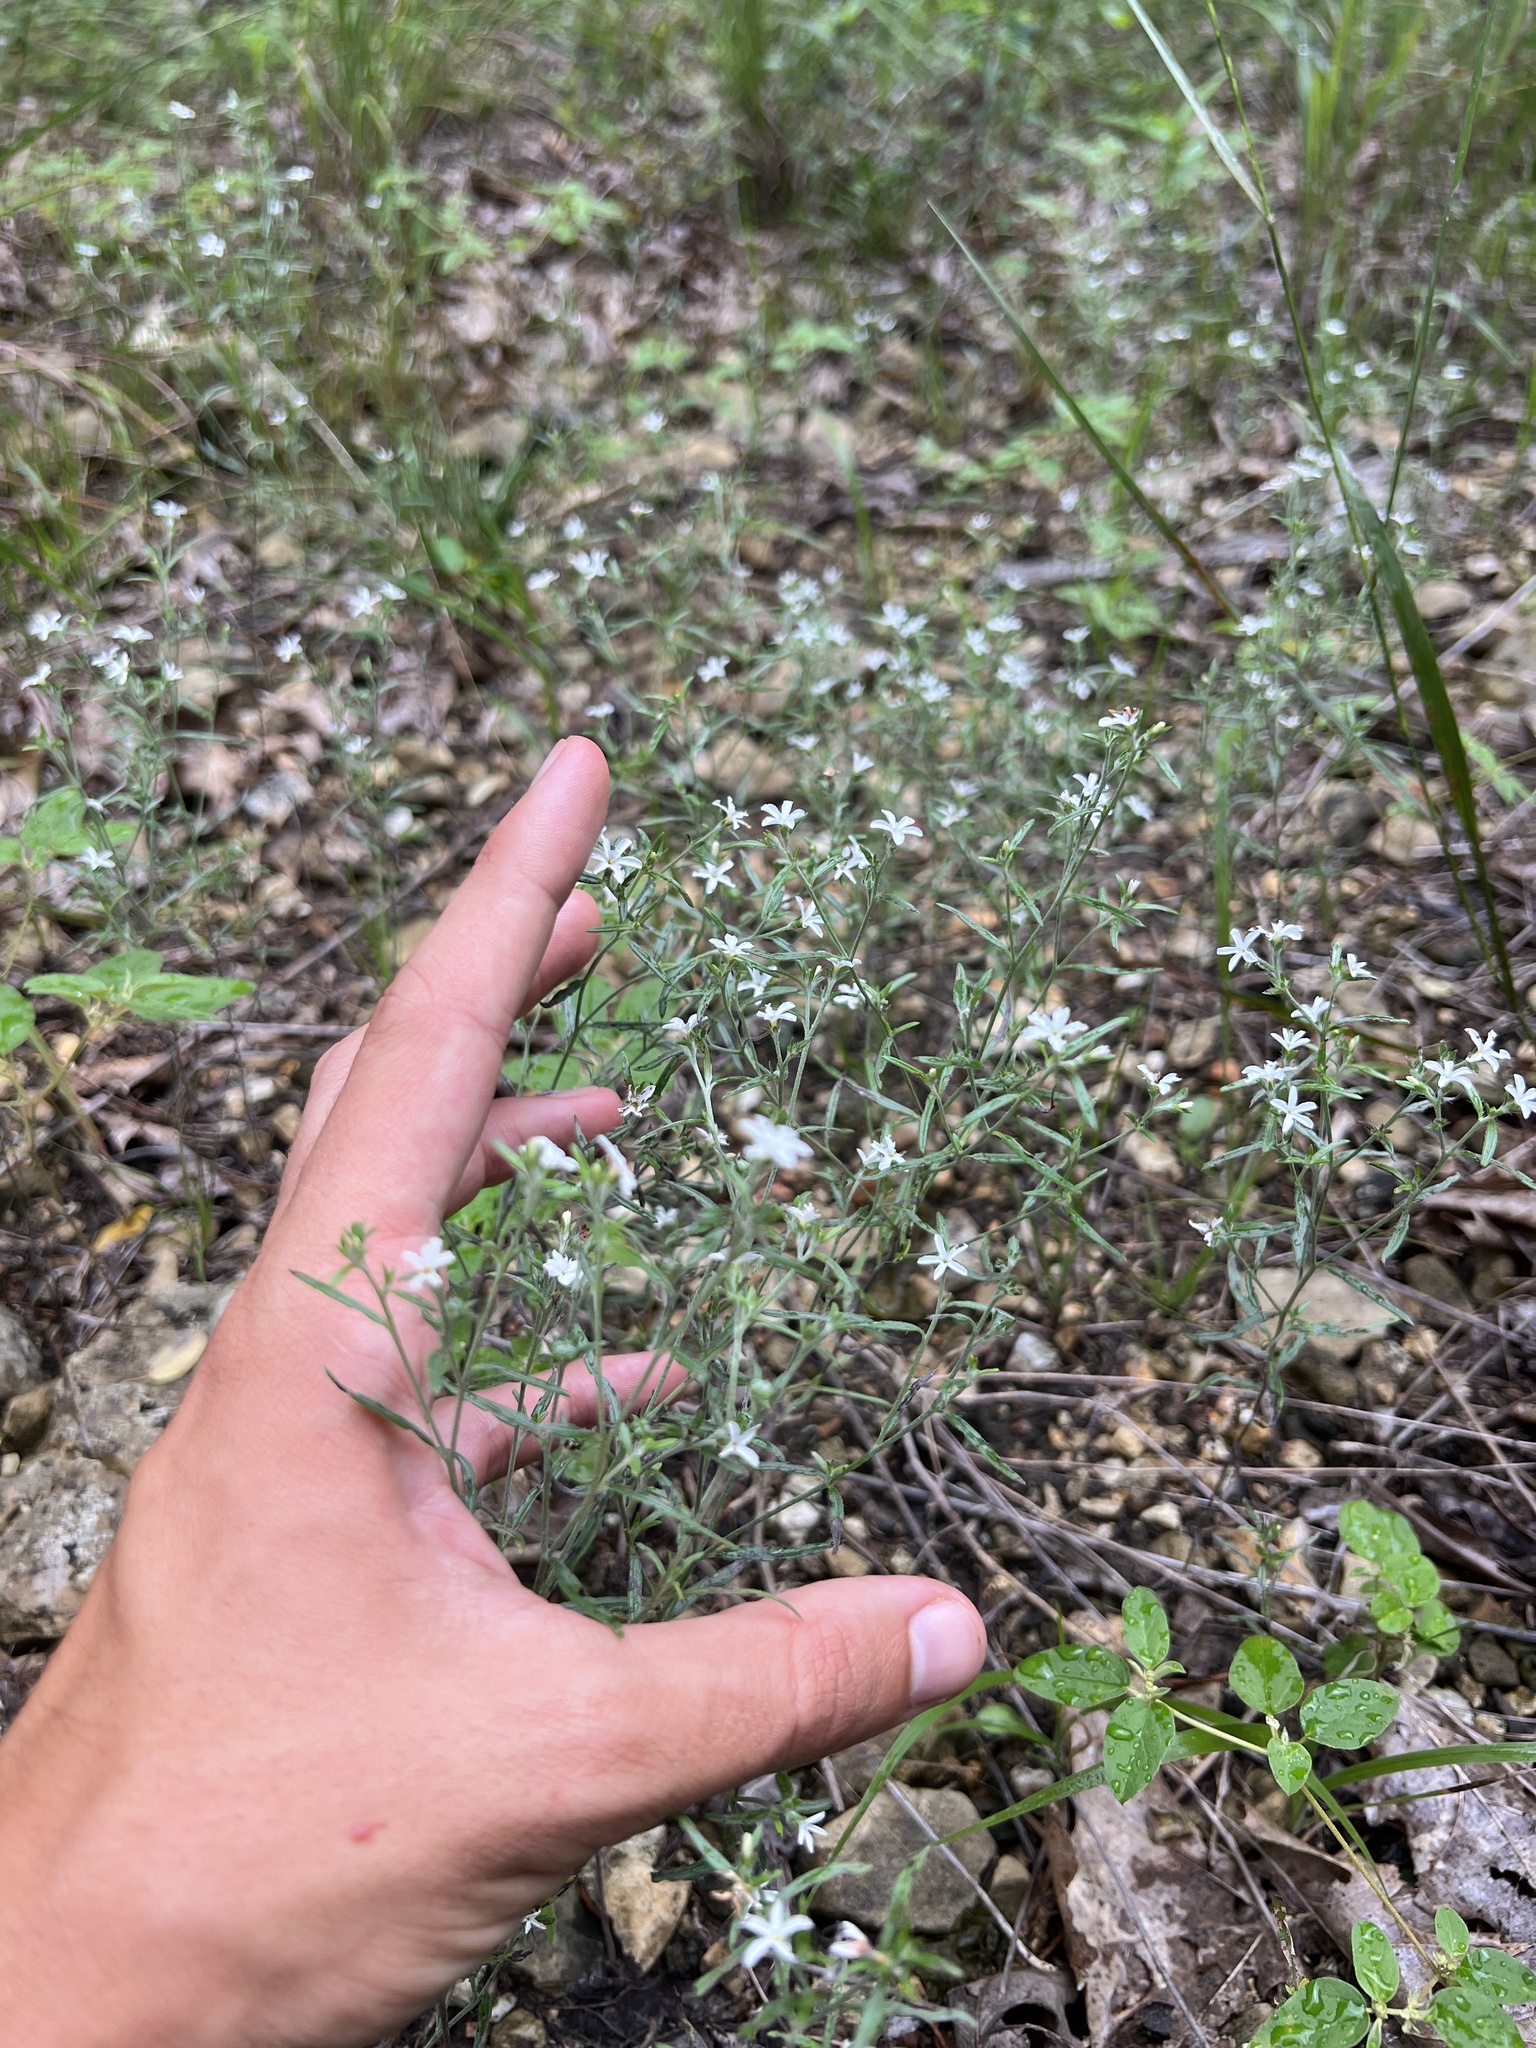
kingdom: Plantae
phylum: Tracheophyta
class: Magnoliopsida
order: Boraginales
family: Heliotropiaceae
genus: Euploca
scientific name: Euploca tenella
